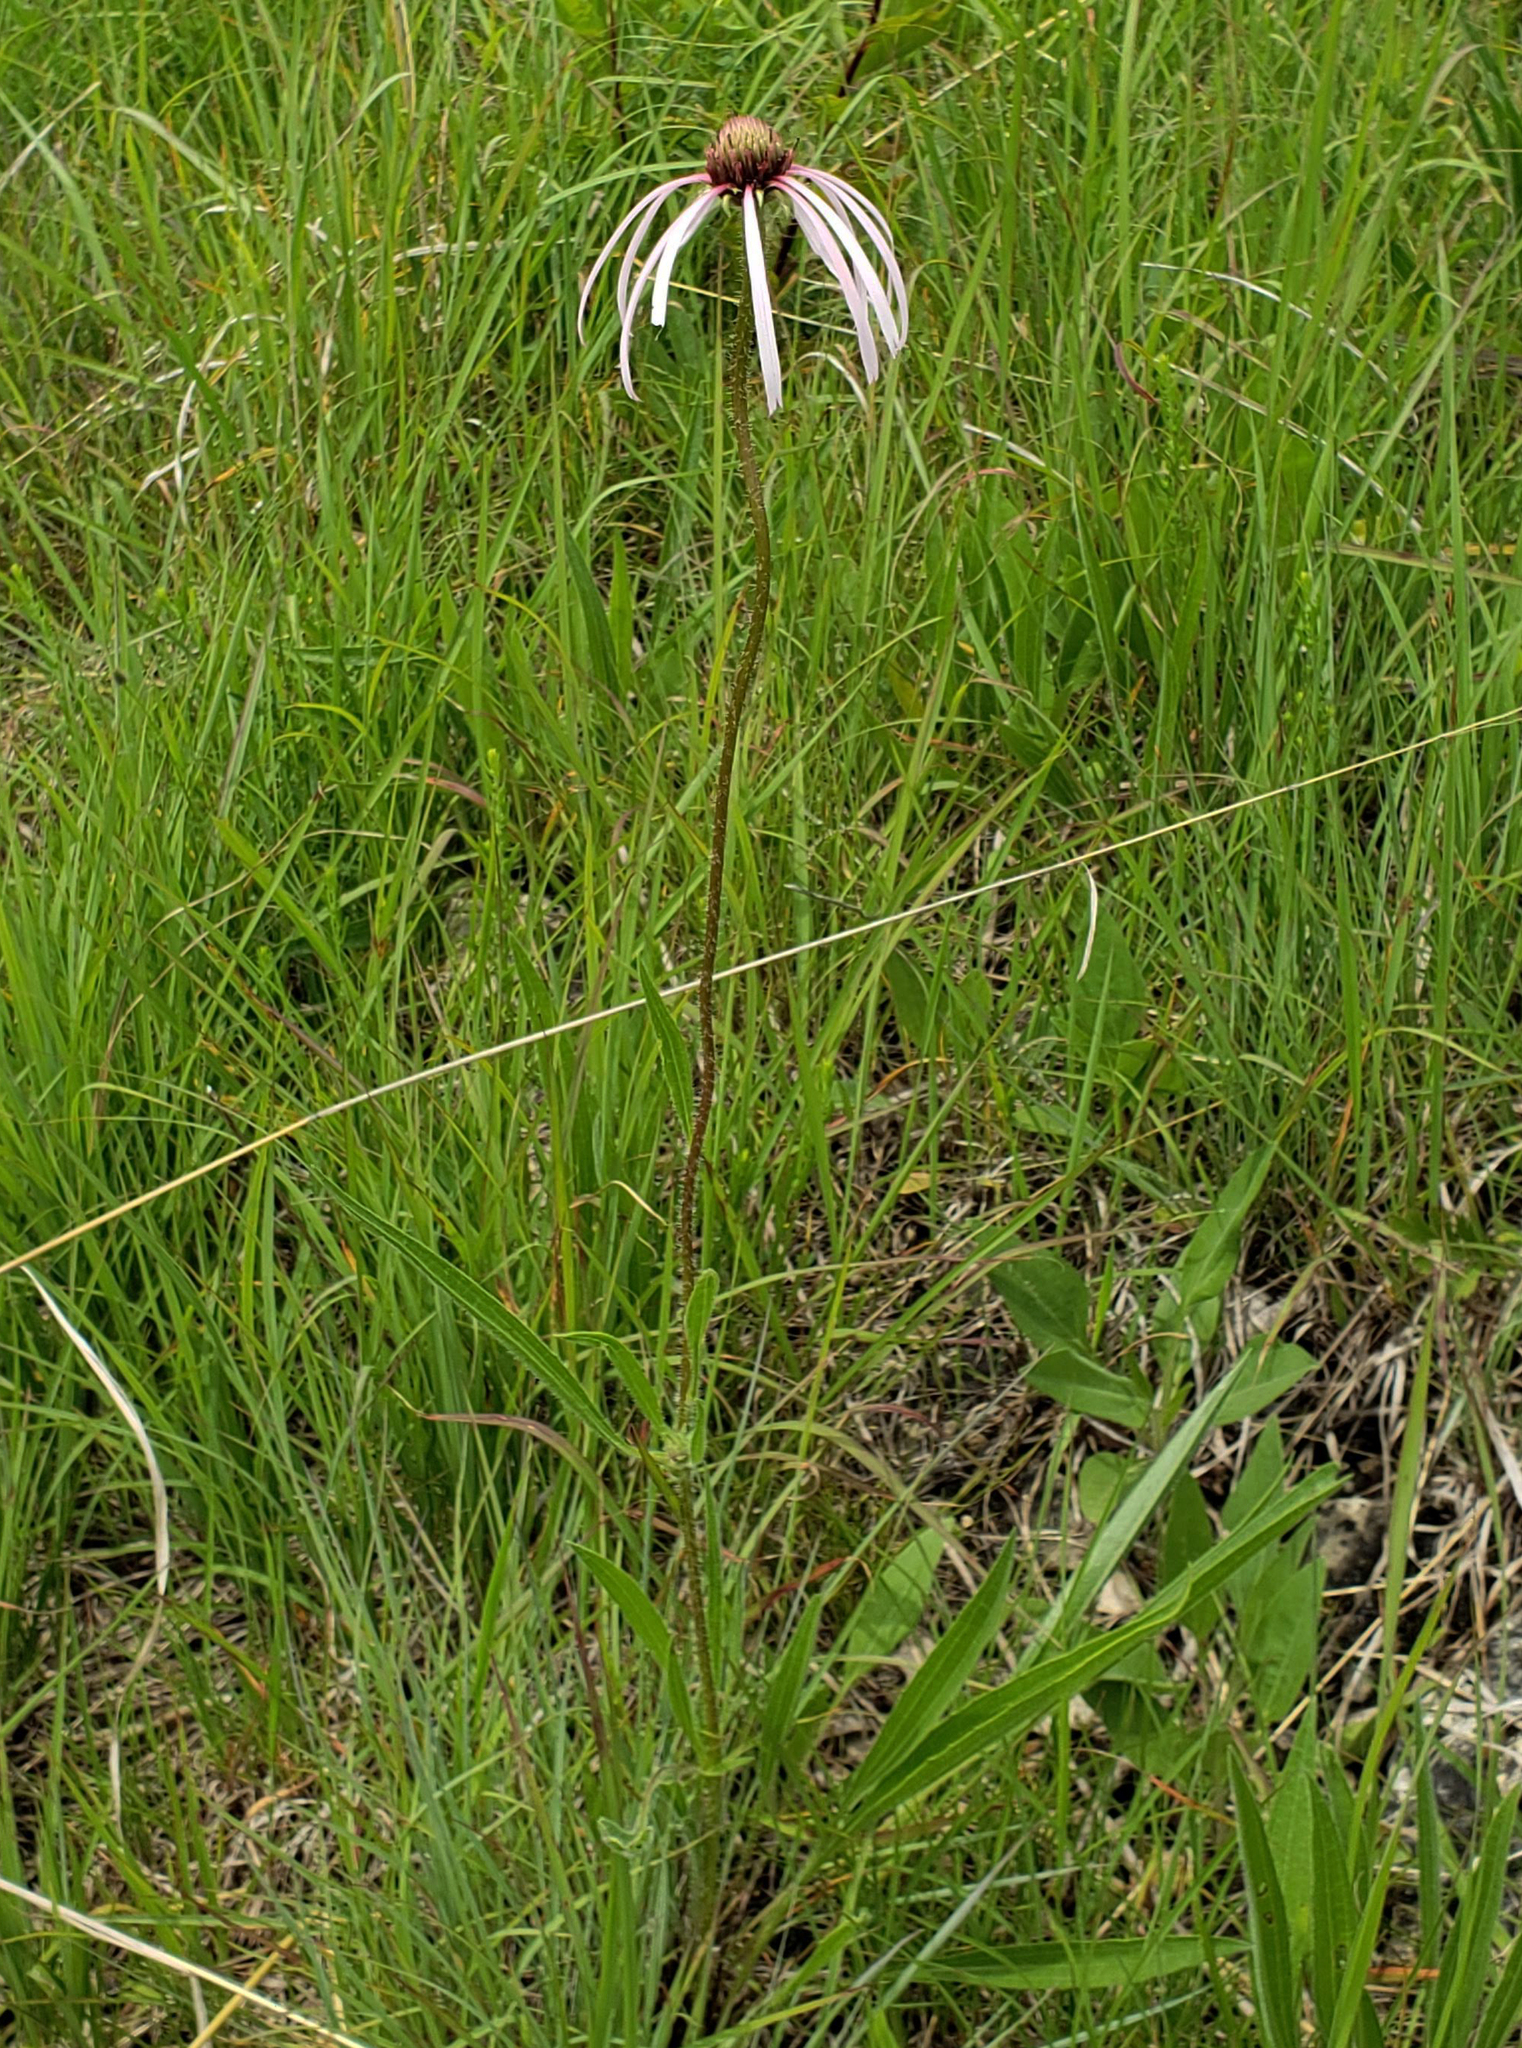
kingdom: Plantae
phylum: Tracheophyta
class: Magnoliopsida
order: Asterales
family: Asteraceae
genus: Echinacea
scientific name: Echinacea pallida
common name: Pale echinacea
